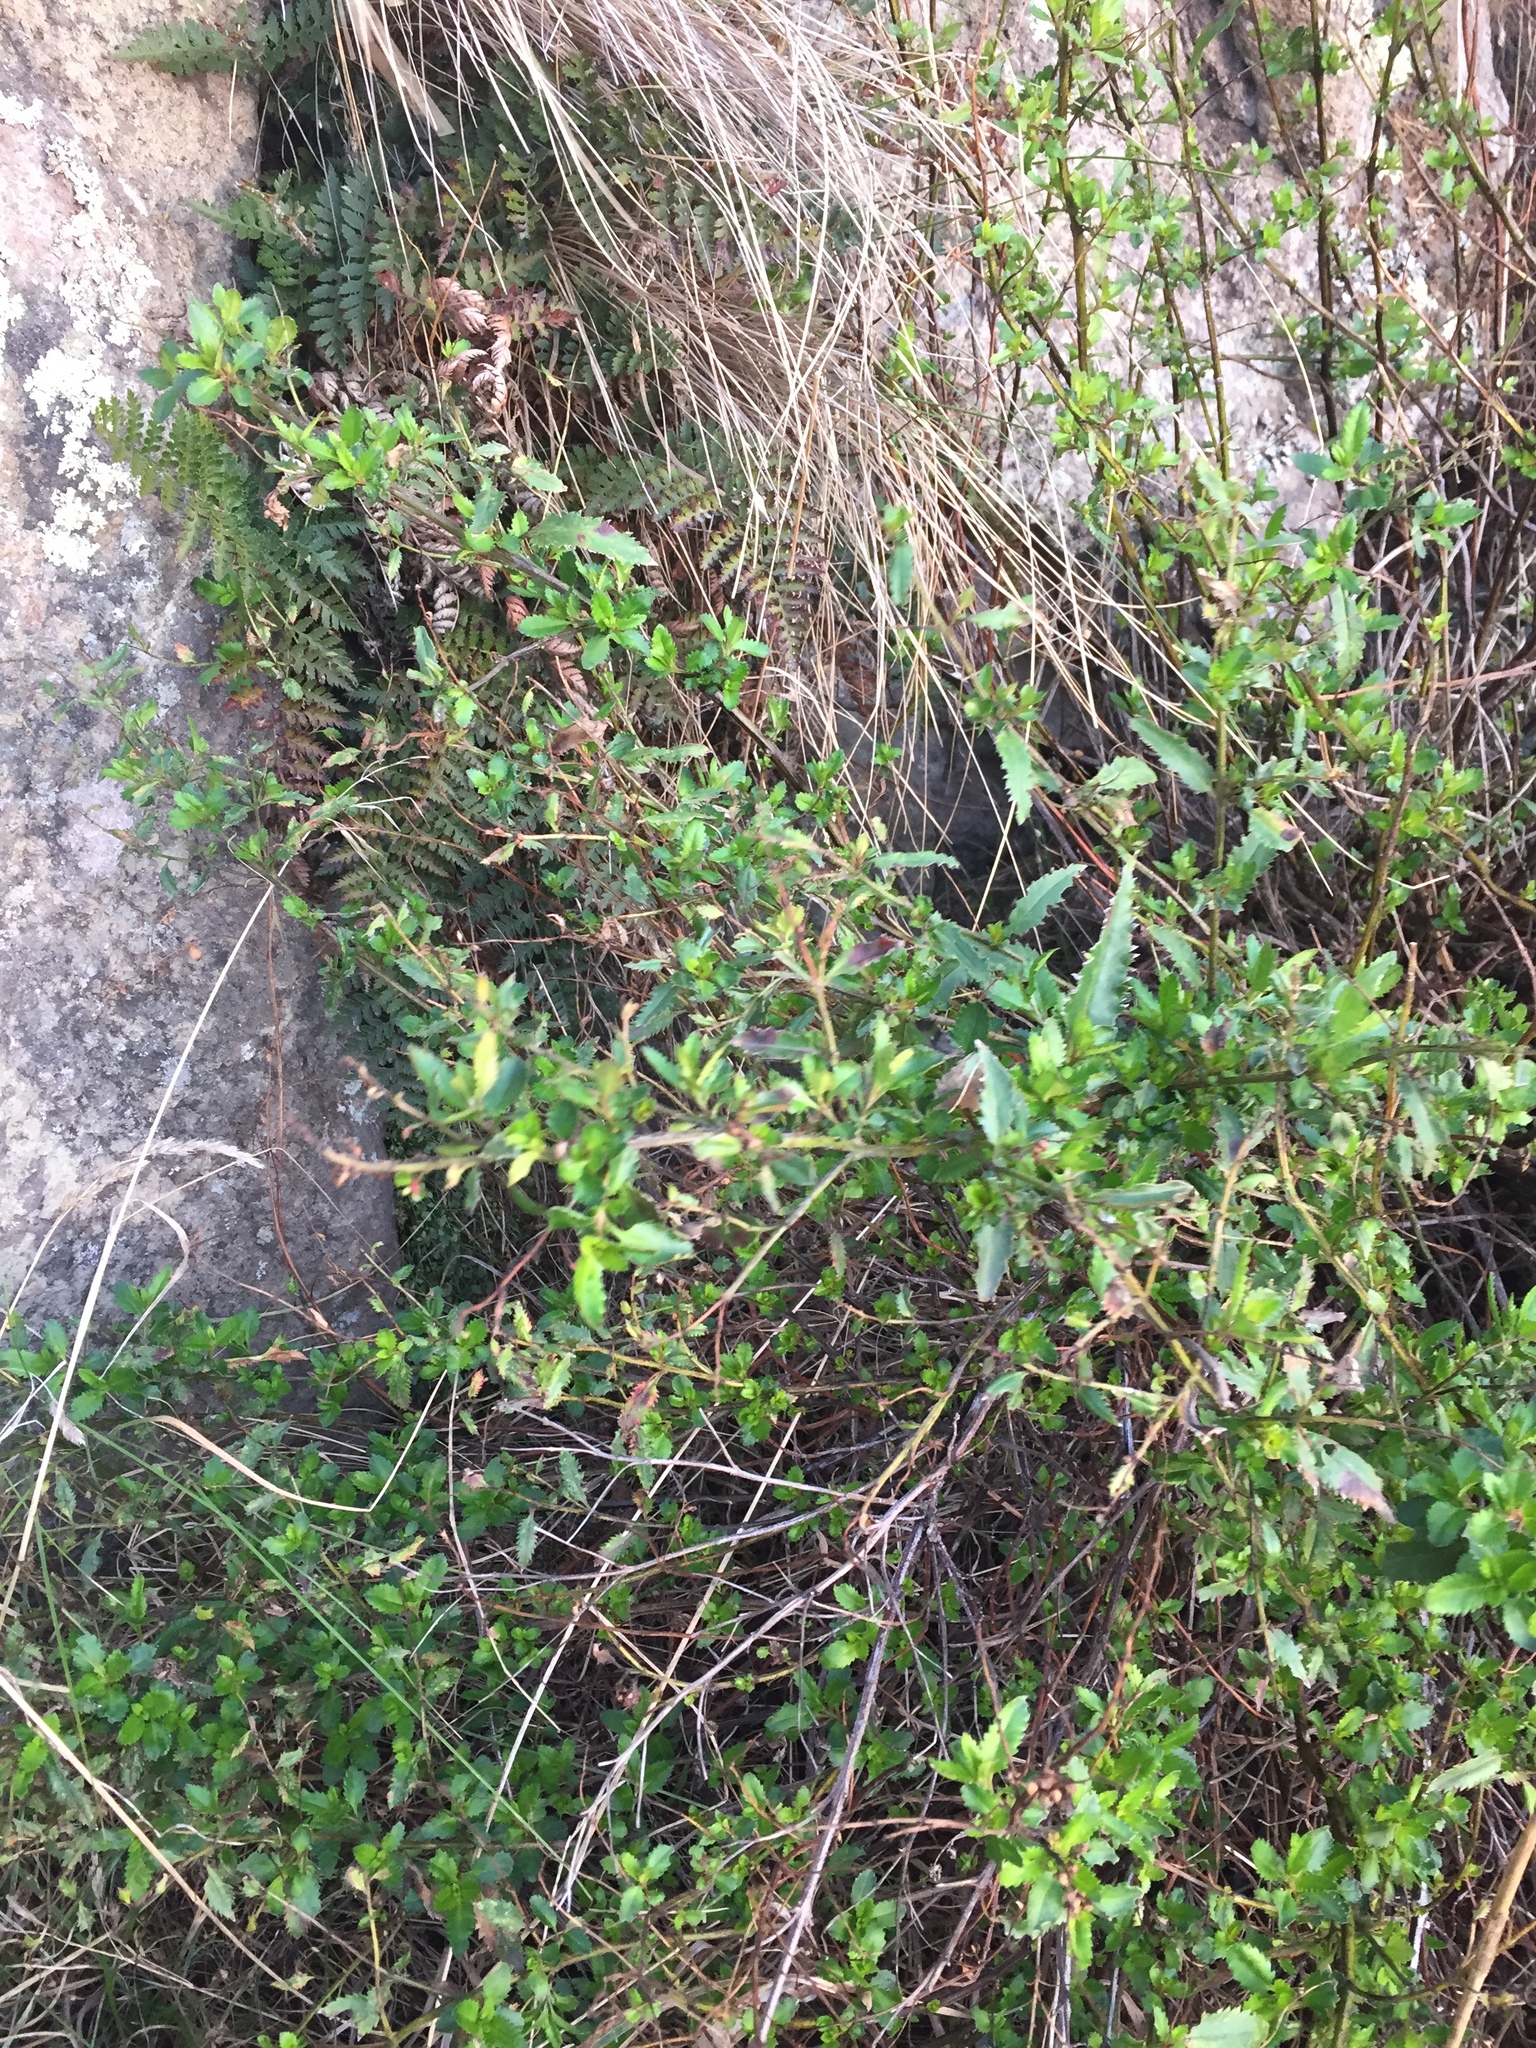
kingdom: Plantae
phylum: Tracheophyta
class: Magnoliopsida
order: Saxifragales
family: Haloragaceae
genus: Haloragis
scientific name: Haloragis erecta
